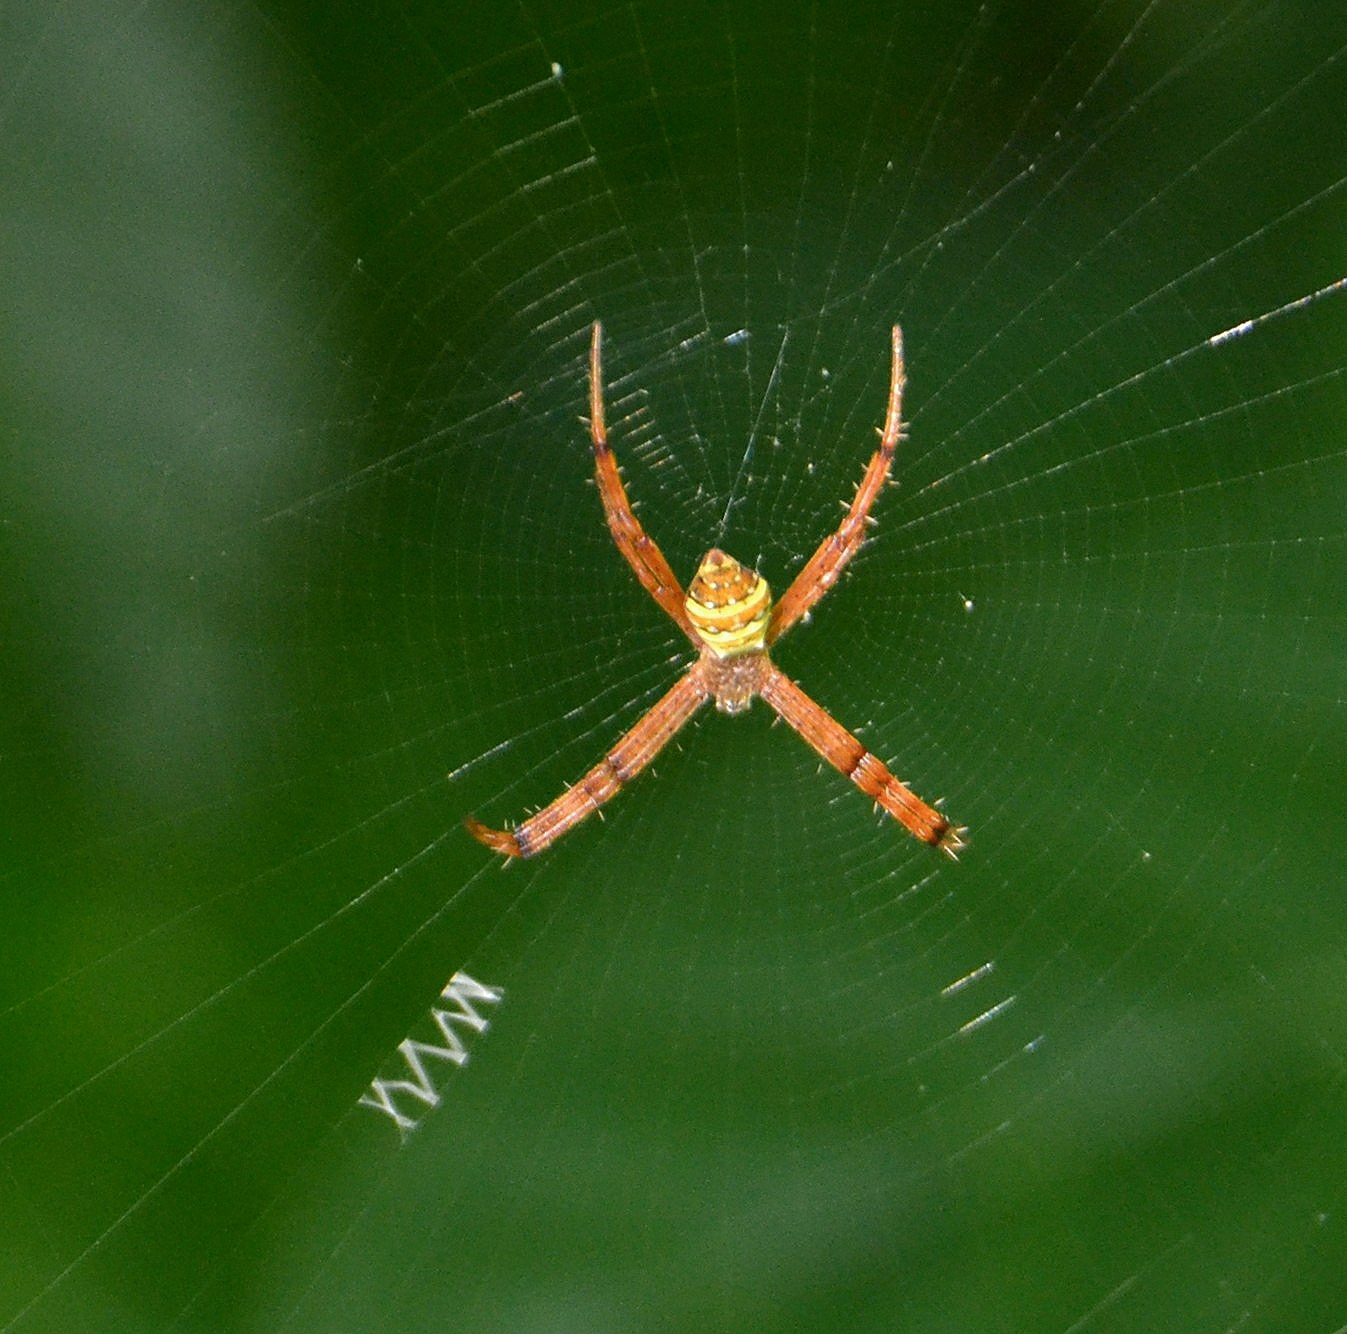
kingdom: Animalia
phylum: Arthropoda
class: Arachnida
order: Araneae
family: Araneidae
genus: Argiope
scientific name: Argiope pulchella
